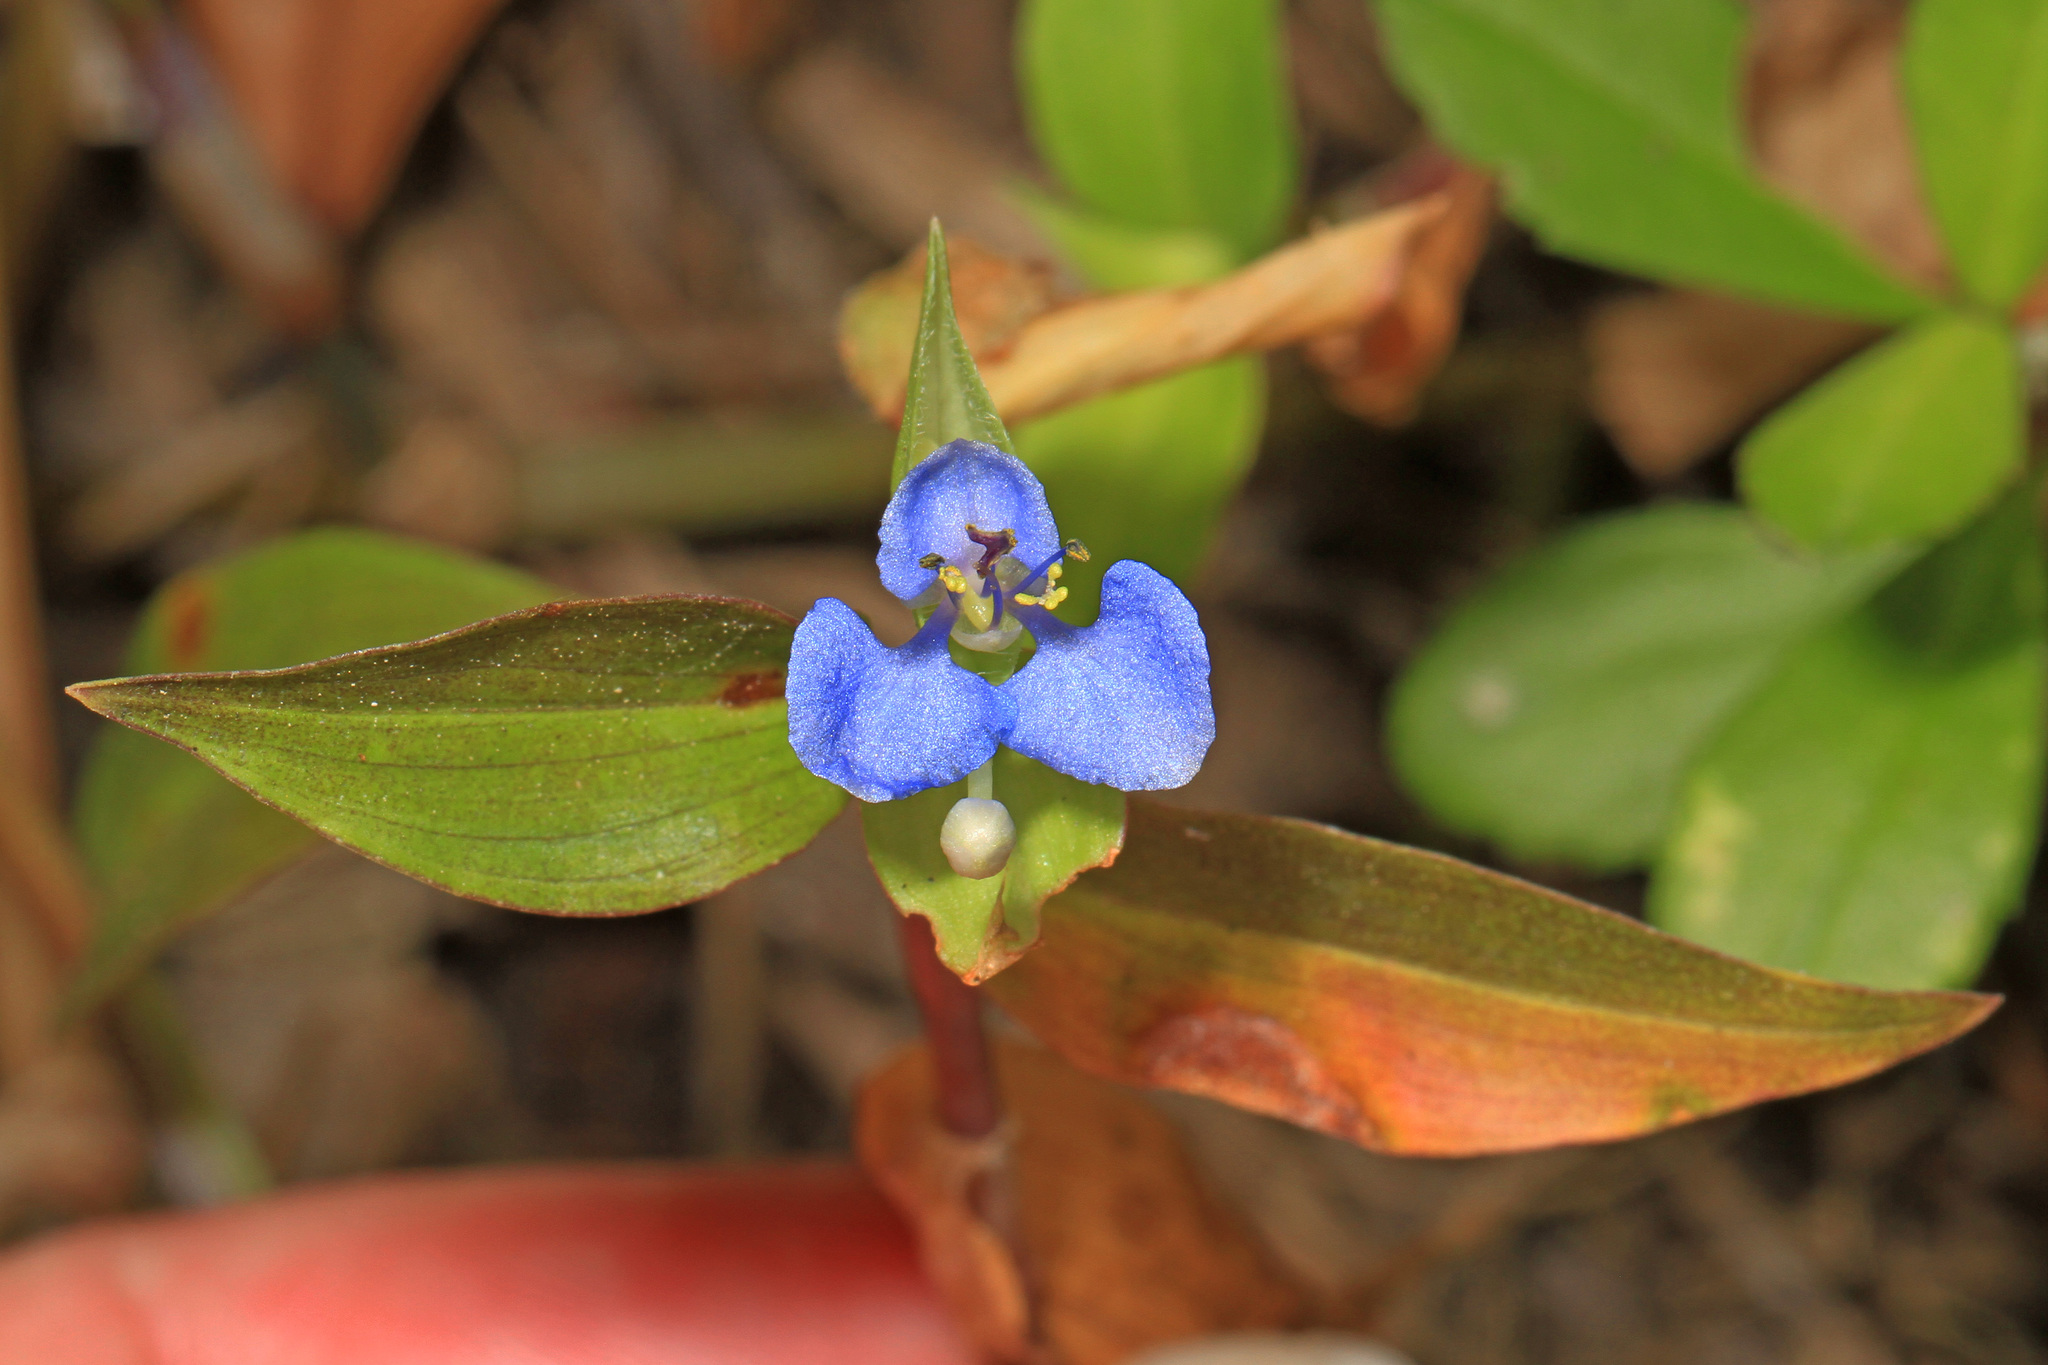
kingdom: Plantae
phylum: Tracheophyta
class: Liliopsida
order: Commelinales
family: Commelinaceae
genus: Commelina
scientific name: Commelina diffusa
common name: Climbing dayflower
